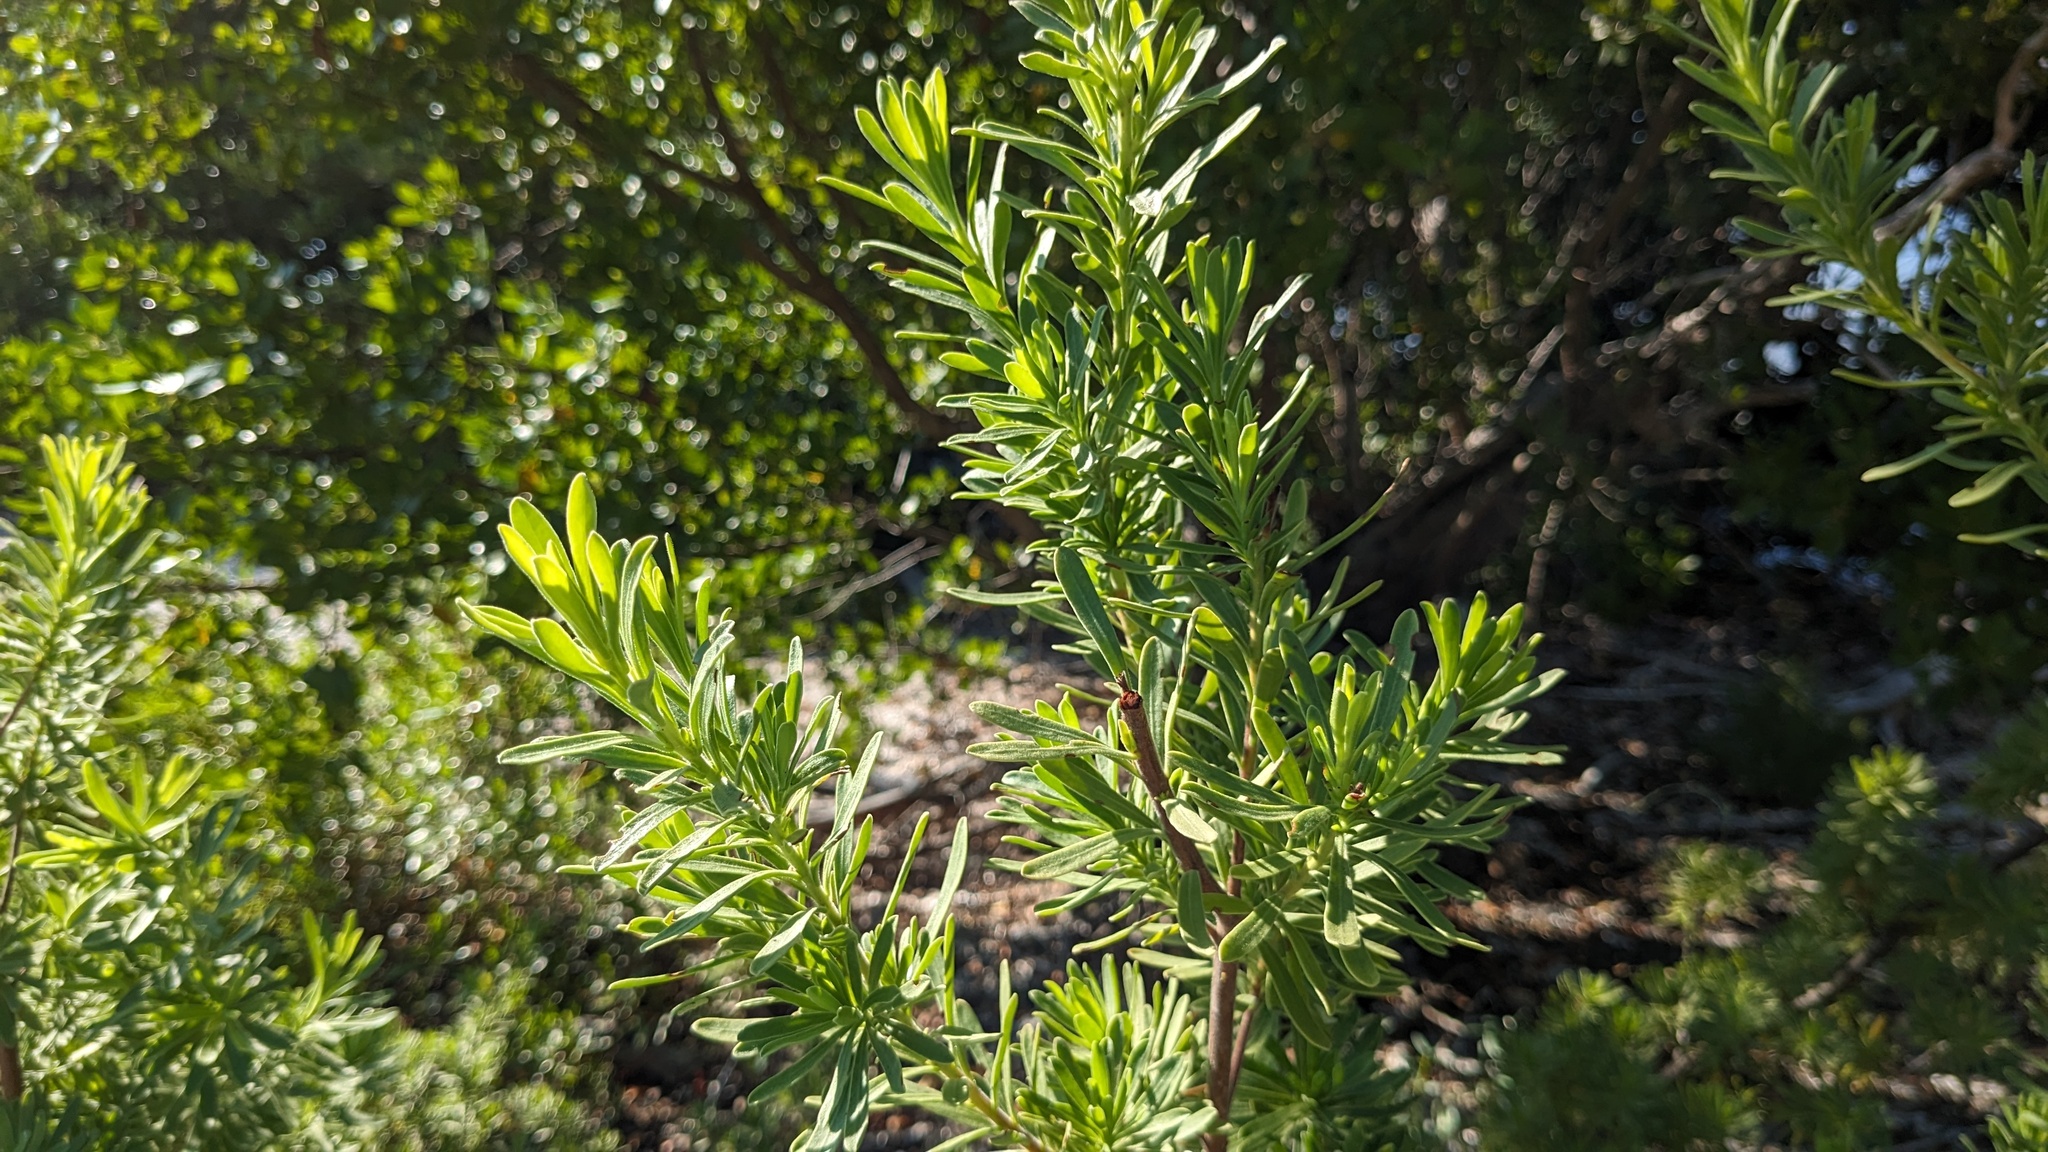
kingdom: Plantae
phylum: Tracheophyta
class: Magnoliopsida
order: Fabales
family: Surianaceae
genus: Suriana
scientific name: Suriana maritima
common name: Bay-cedar
